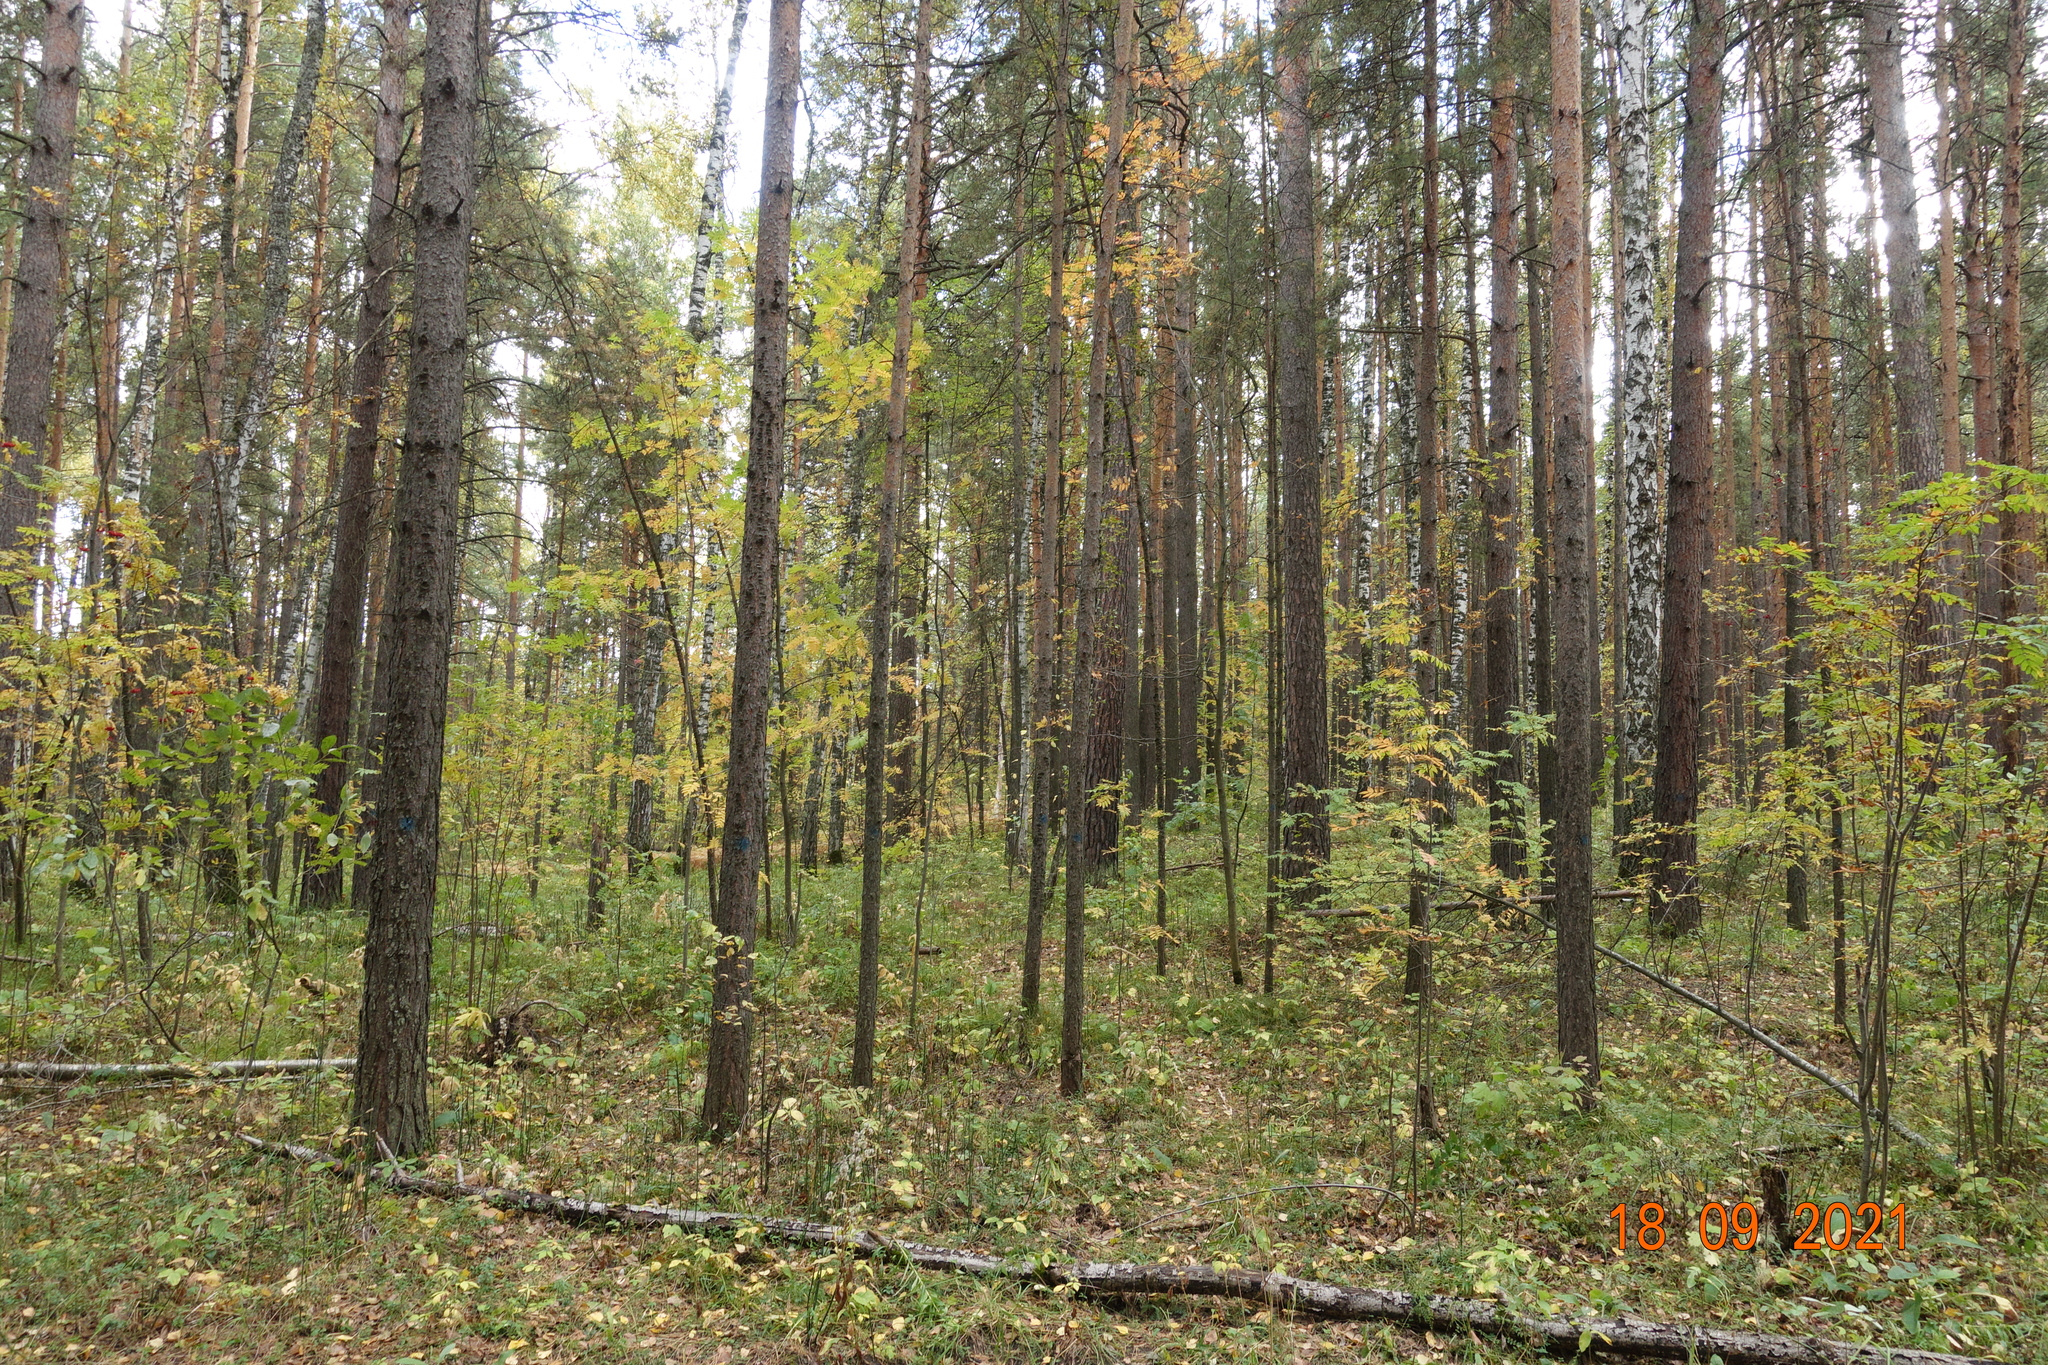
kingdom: Plantae
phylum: Tracheophyta
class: Pinopsida
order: Pinales
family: Pinaceae
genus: Pinus
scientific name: Pinus sylvestris
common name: Scots pine
